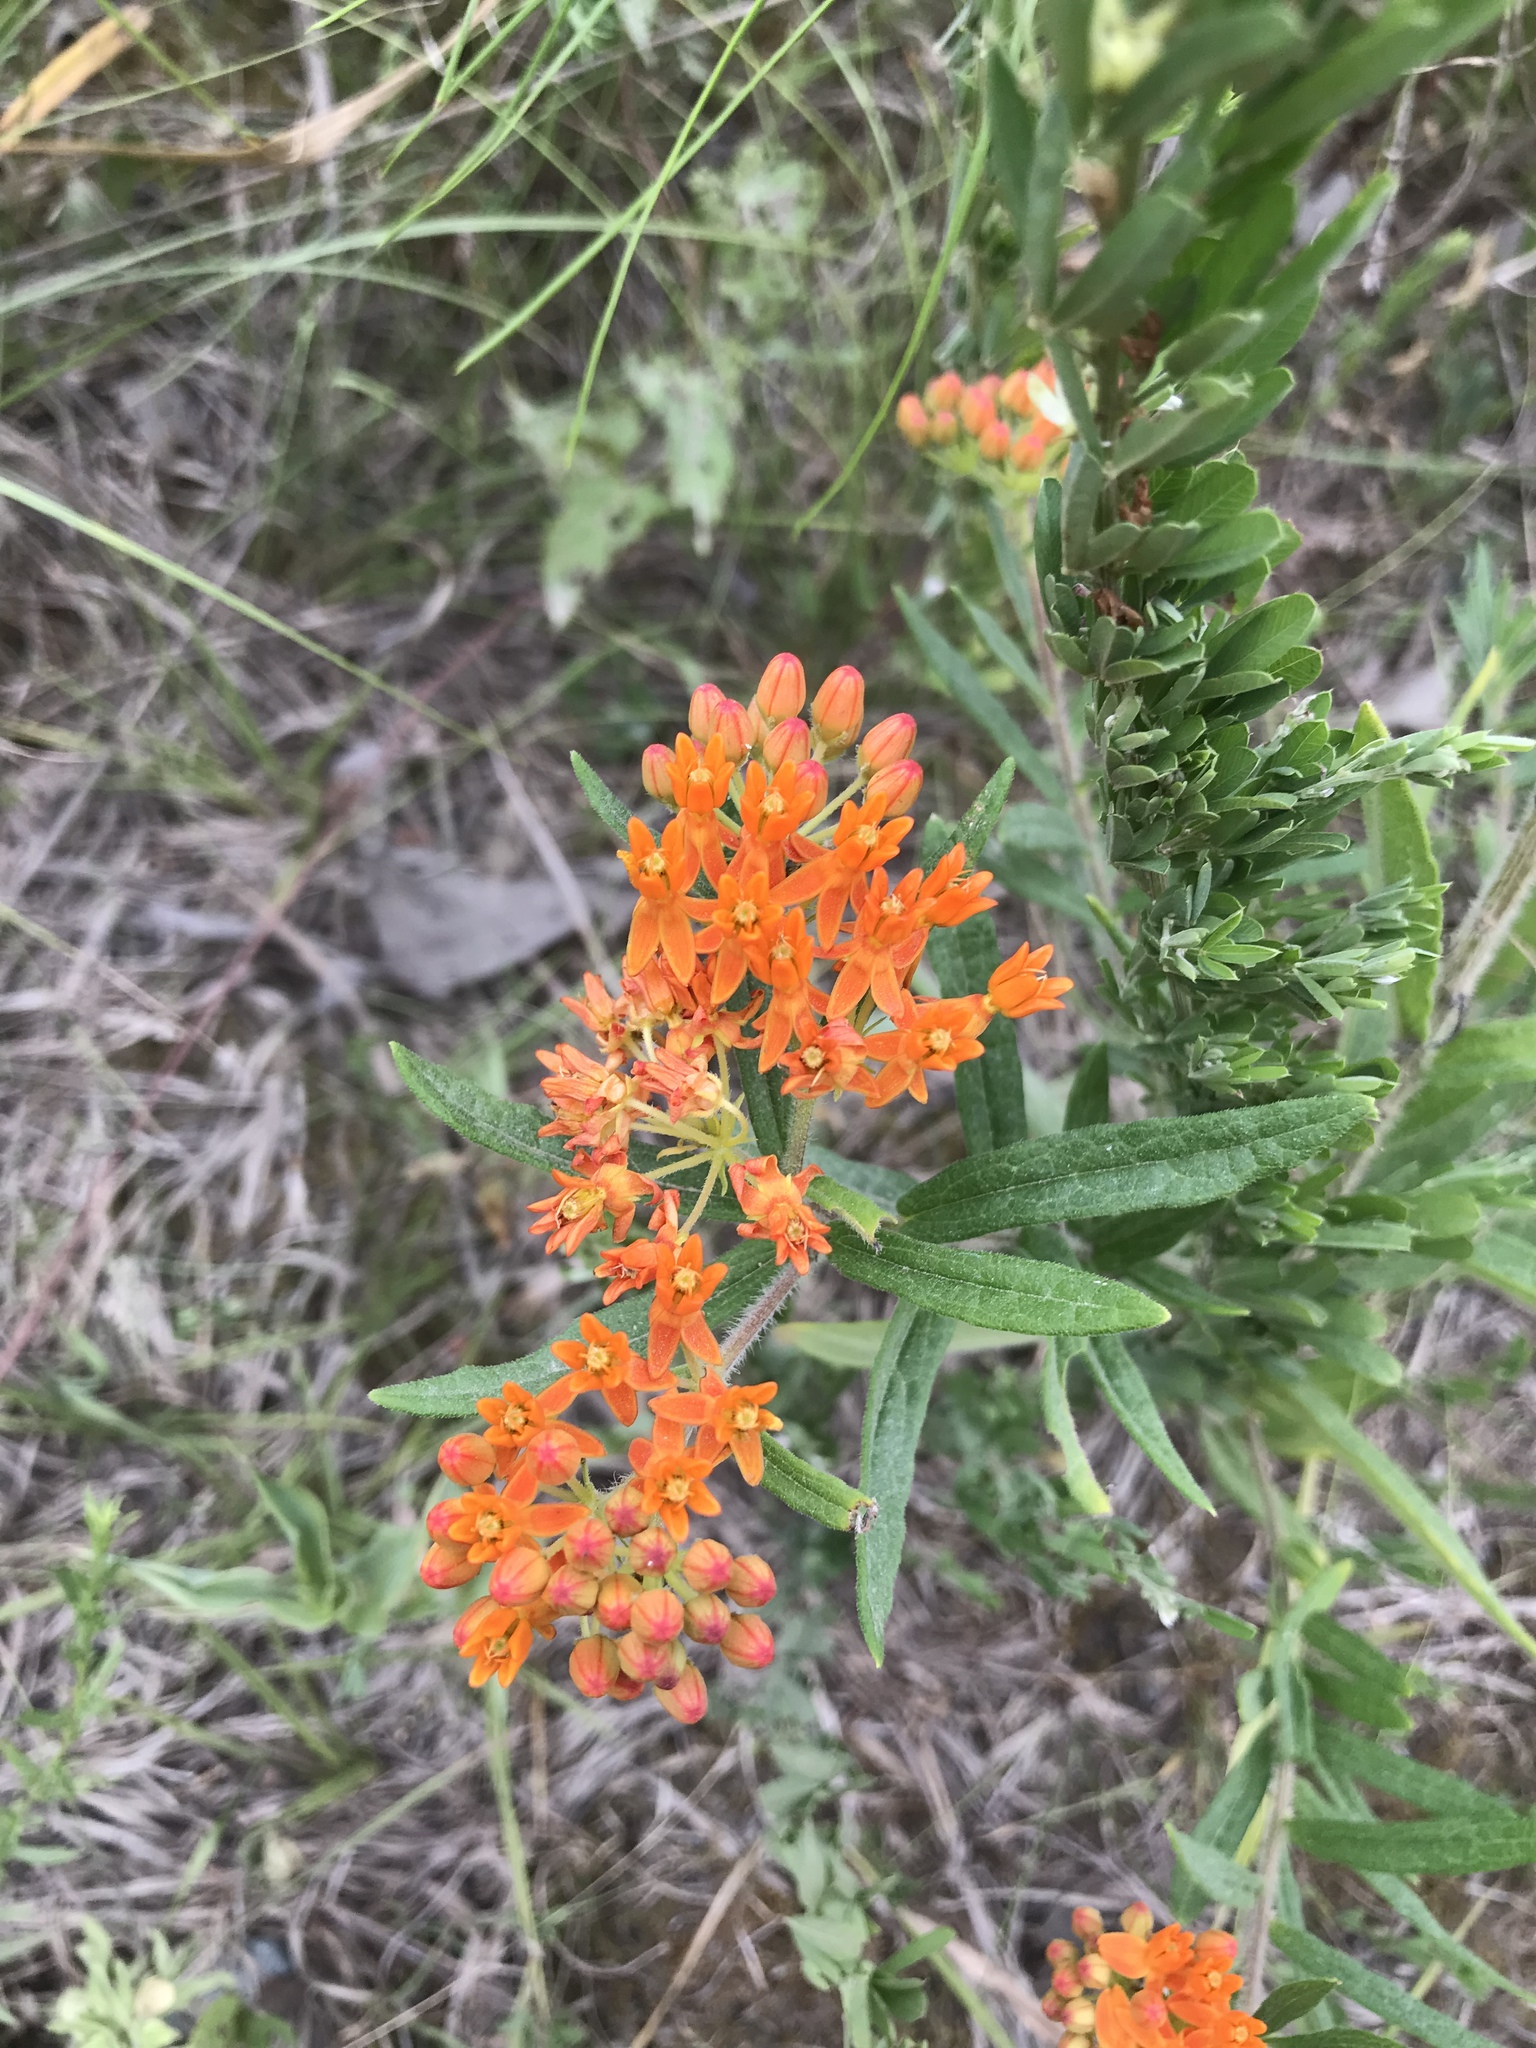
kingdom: Plantae
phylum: Tracheophyta
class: Magnoliopsida
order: Gentianales
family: Apocynaceae
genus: Asclepias
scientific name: Asclepias tuberosa
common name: Butterfly milkweed
